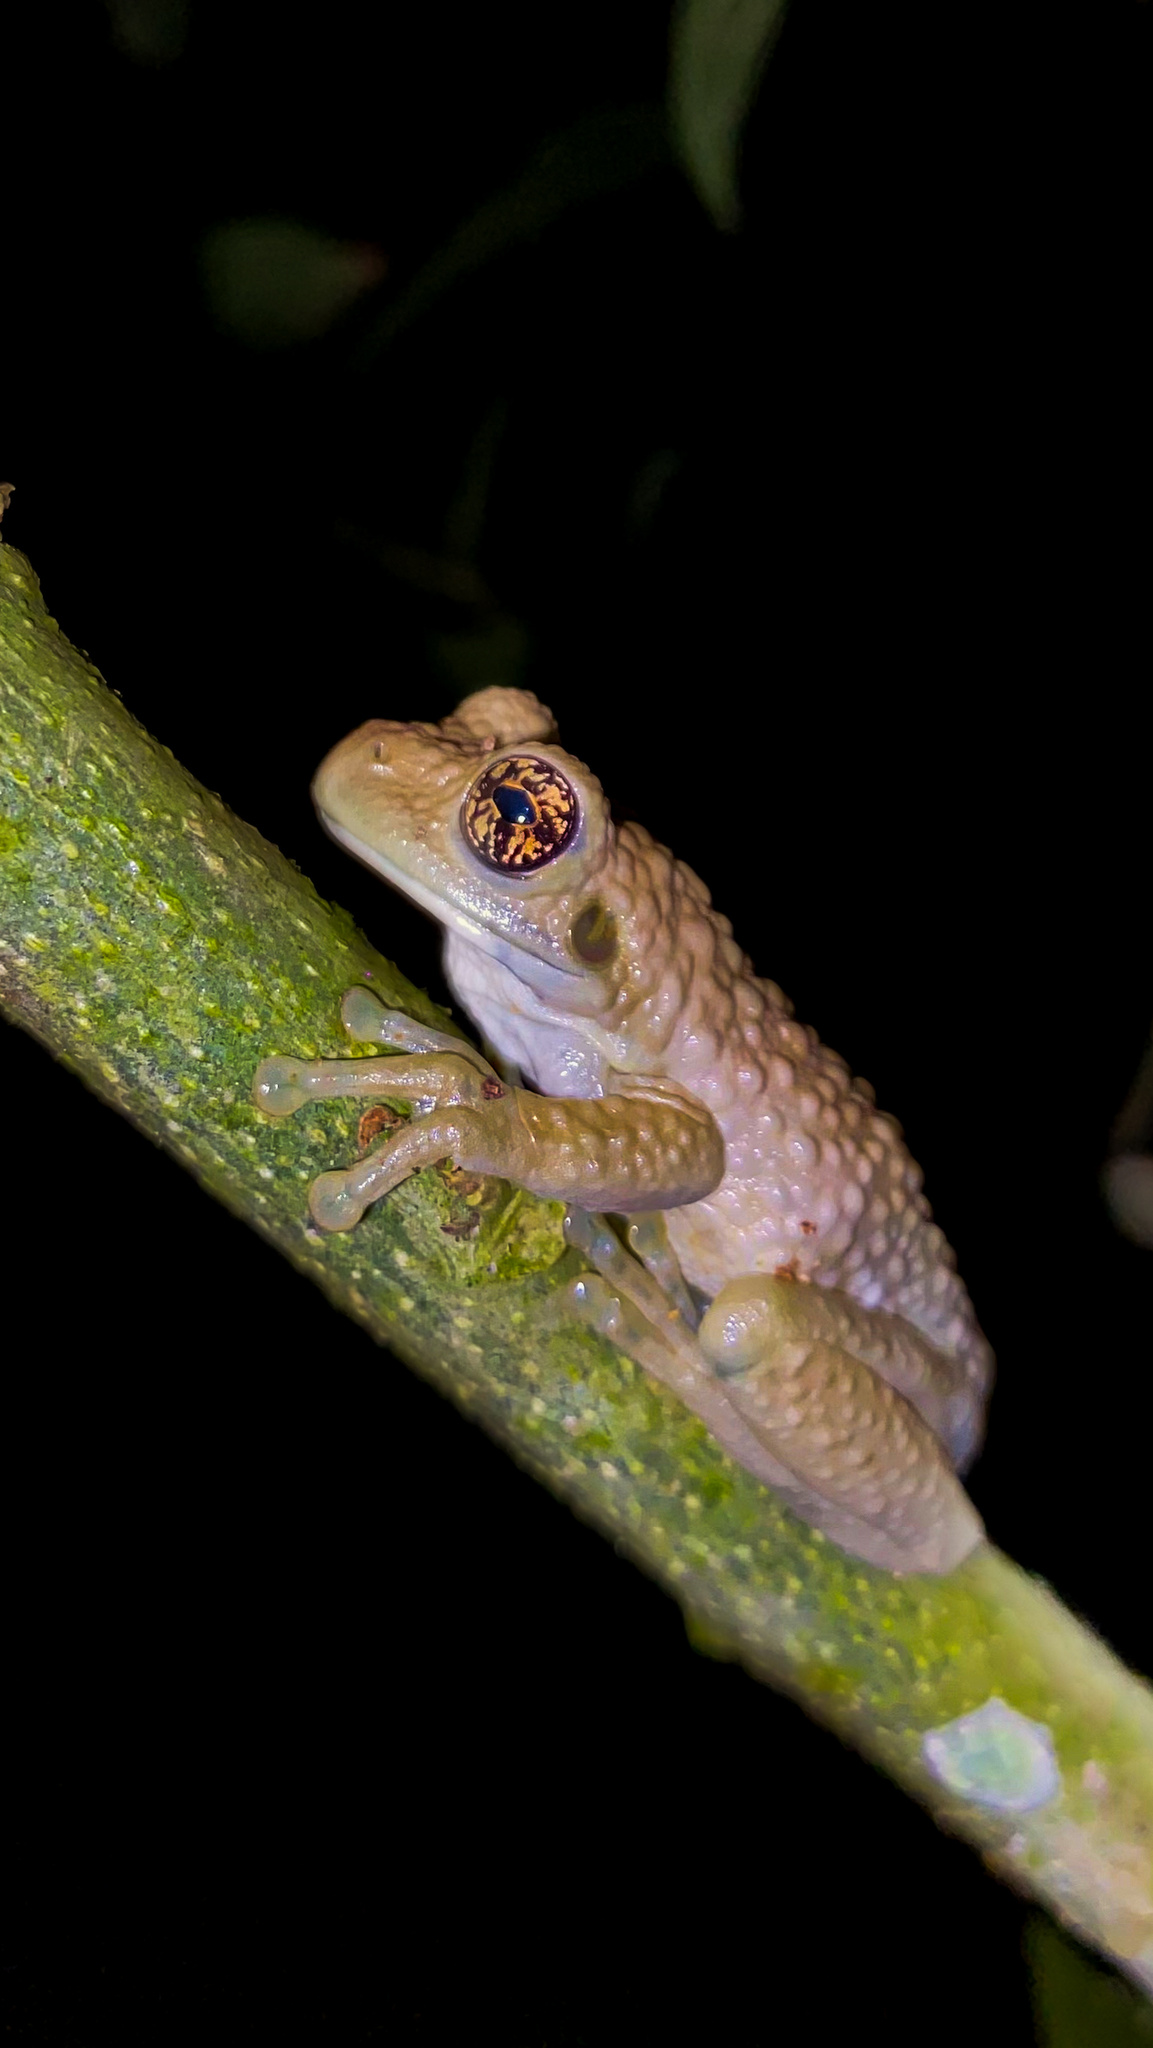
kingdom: Animalia
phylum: Chordata
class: Amphibia
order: Anura
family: Hylidae
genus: Trachycephalus
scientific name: Trachycephalus vermiculatus
